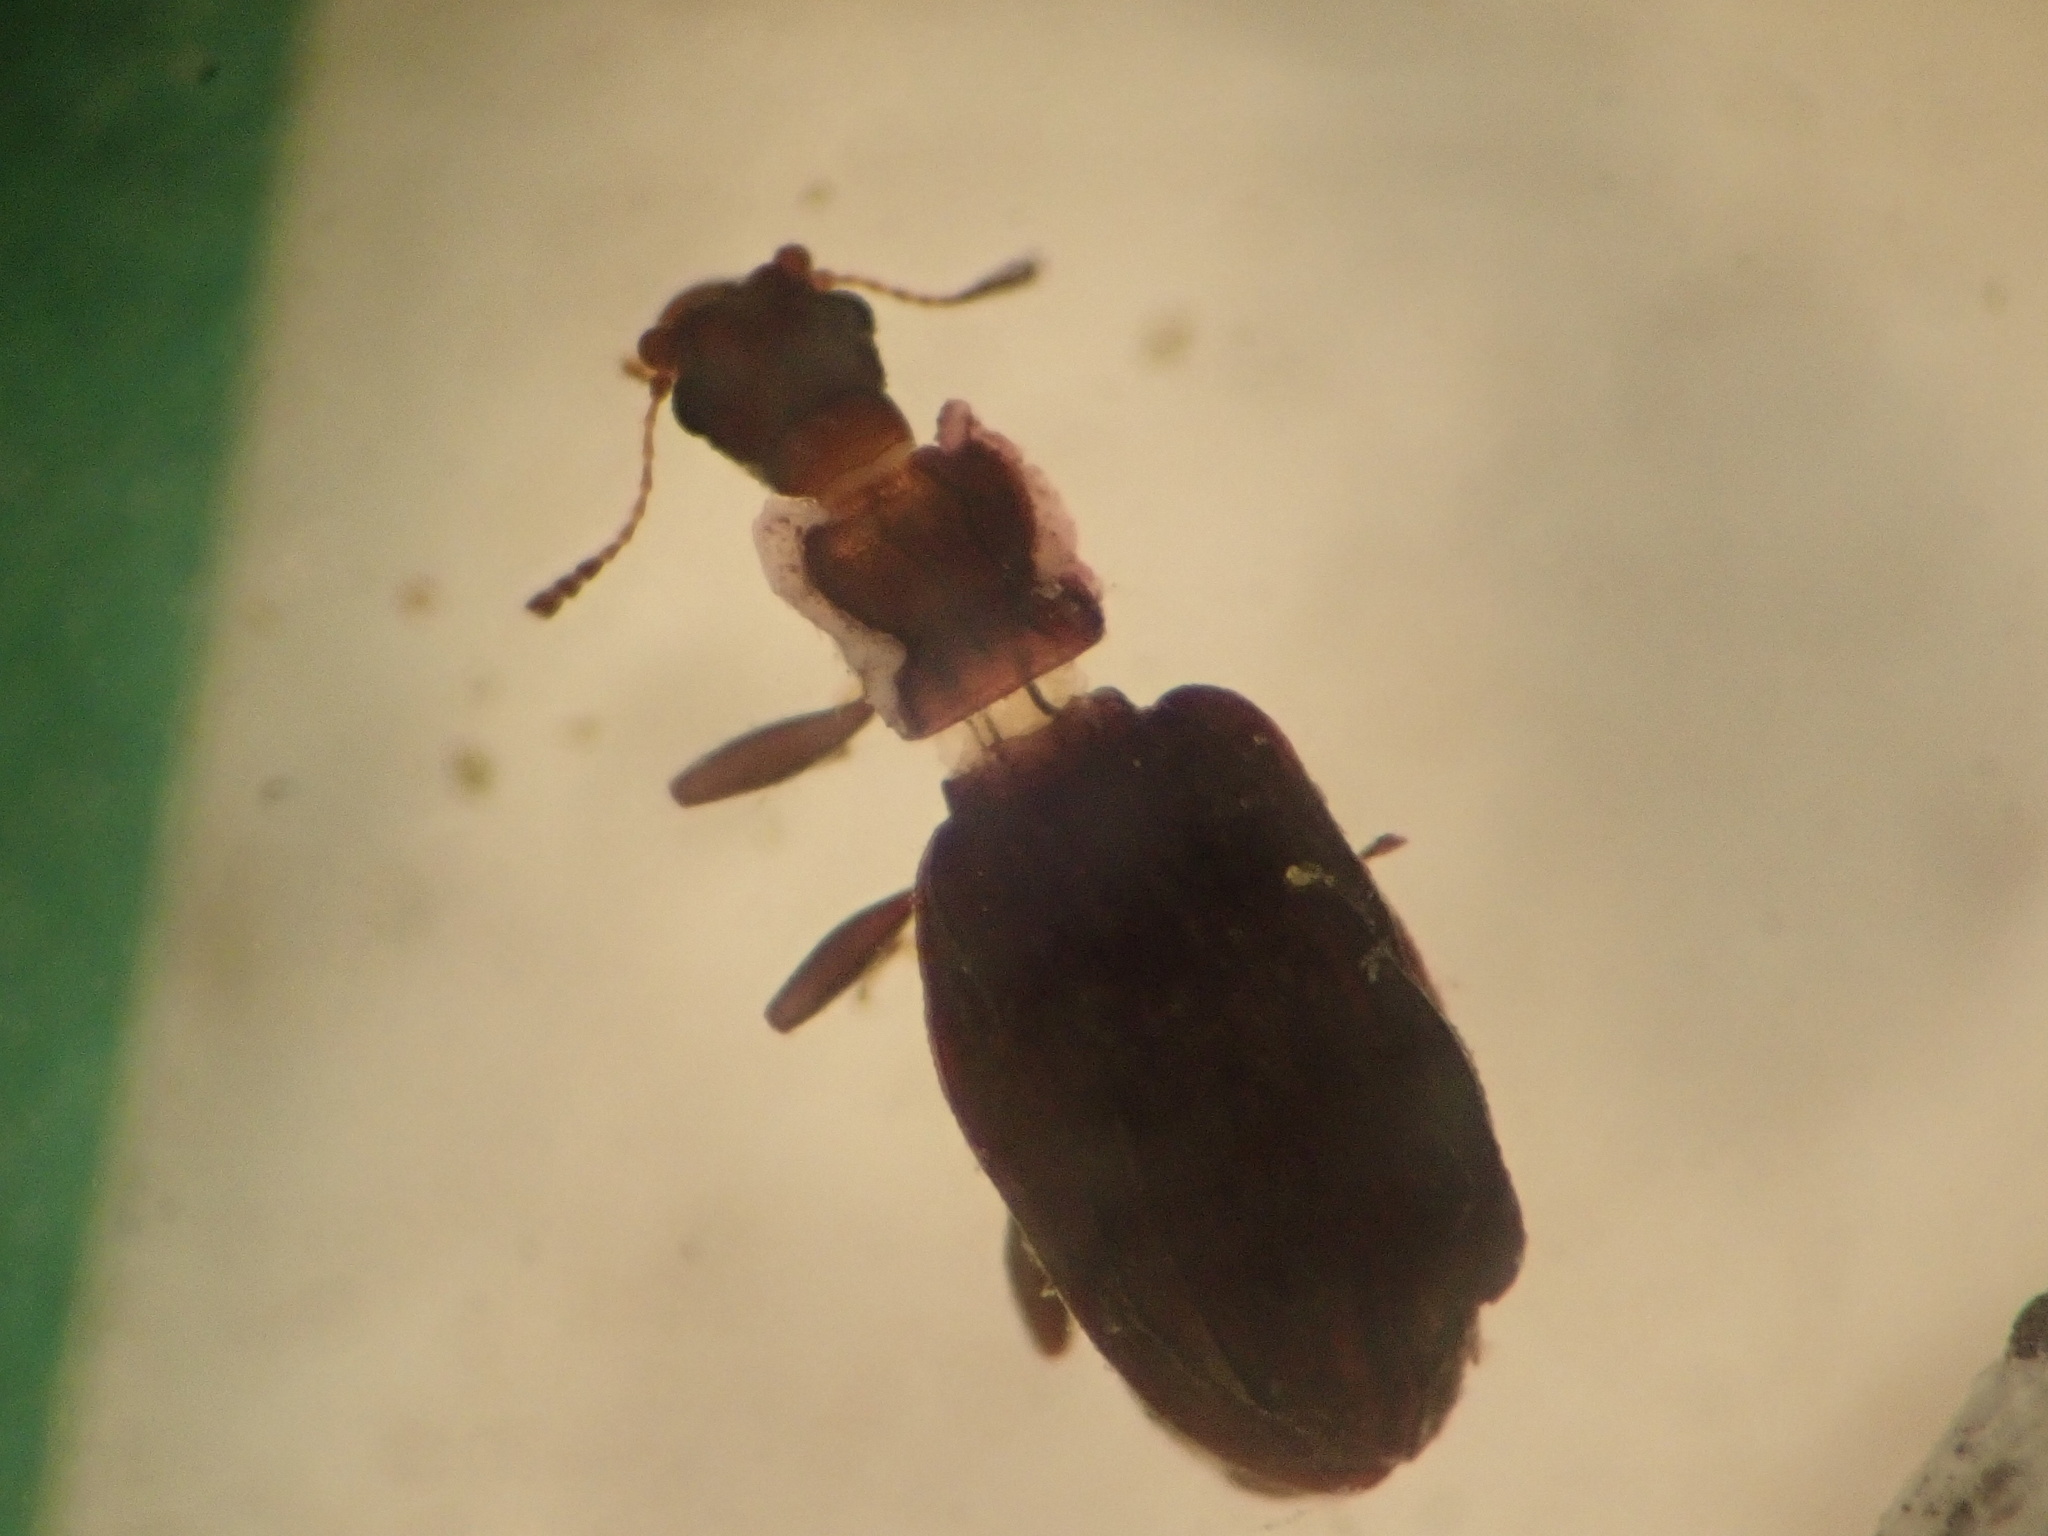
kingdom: Animalia
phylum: Arthropoda
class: Insecta
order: Coleoptera
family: Latridiidae
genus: Cartodere
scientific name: Cartodere nodifer
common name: Humpbacked minute scavenger beetle
